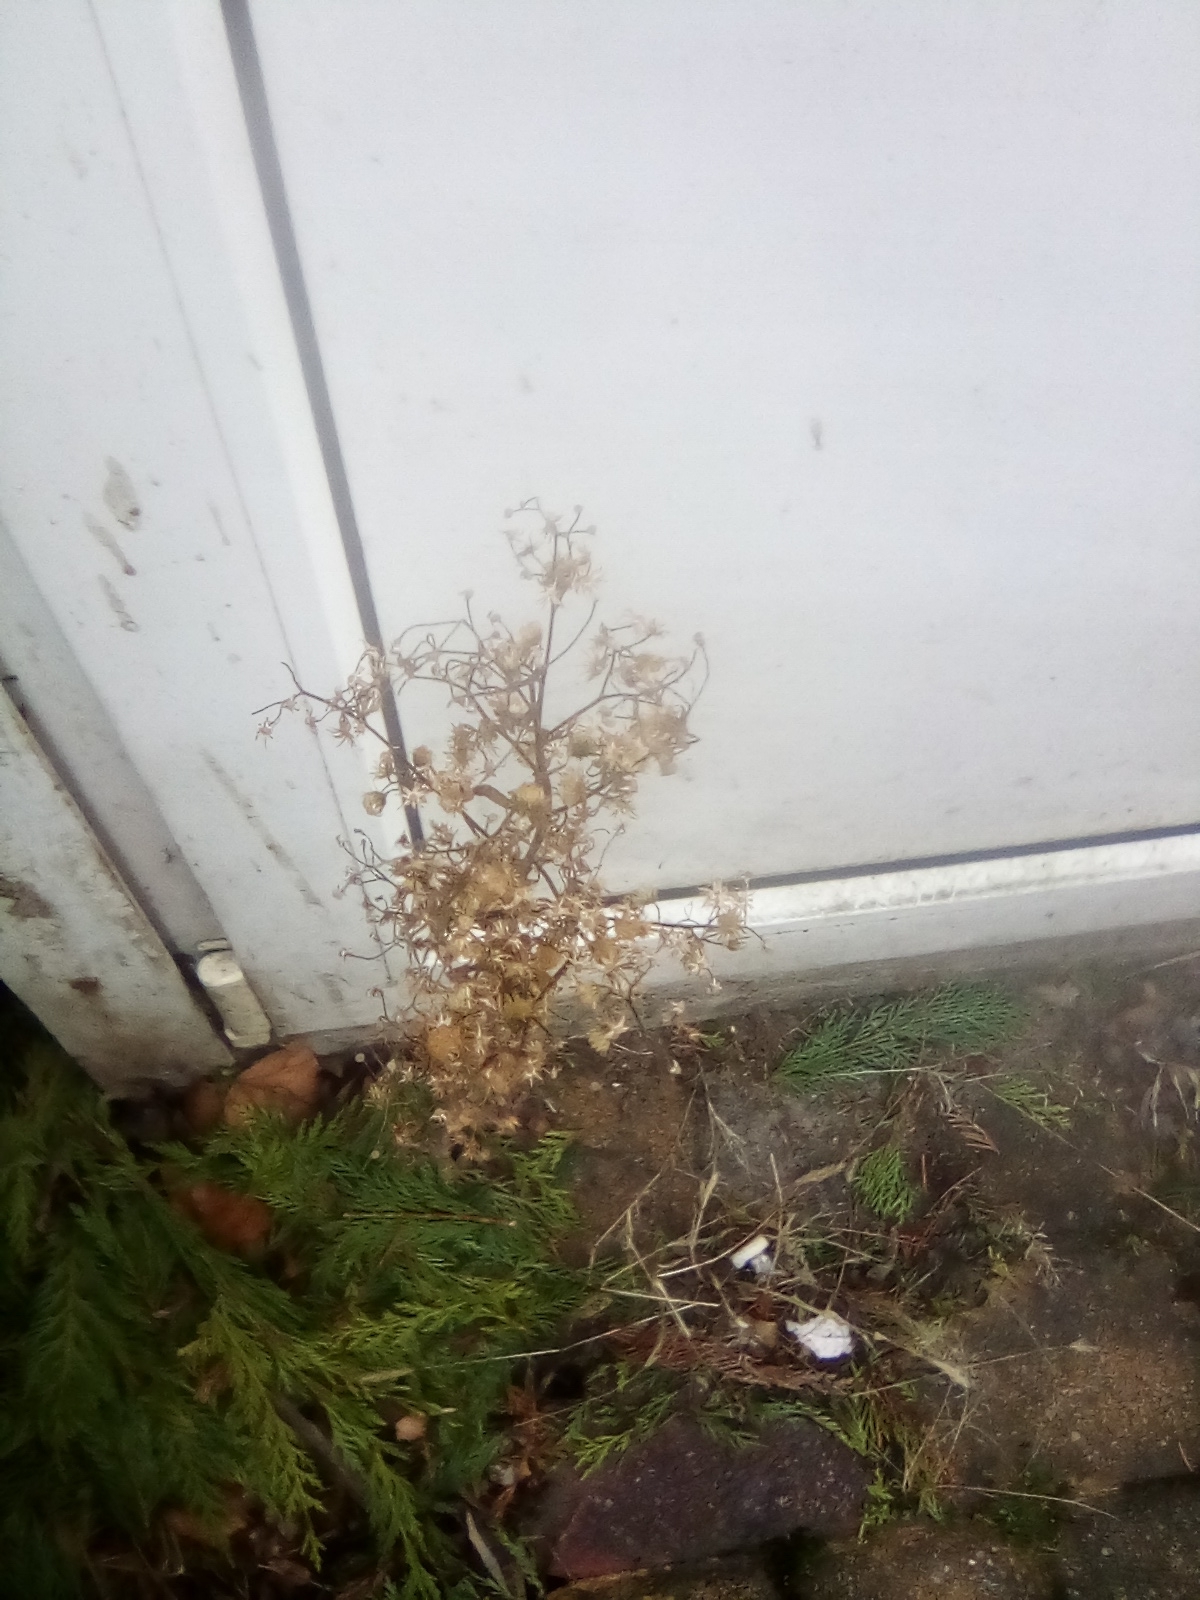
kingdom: Plantae
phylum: Tracheophyta
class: Magnoliopsida
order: Asterales
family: Asteraceae
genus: Erigeron
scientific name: Erigeron canadensis
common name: Canadian fleabane
